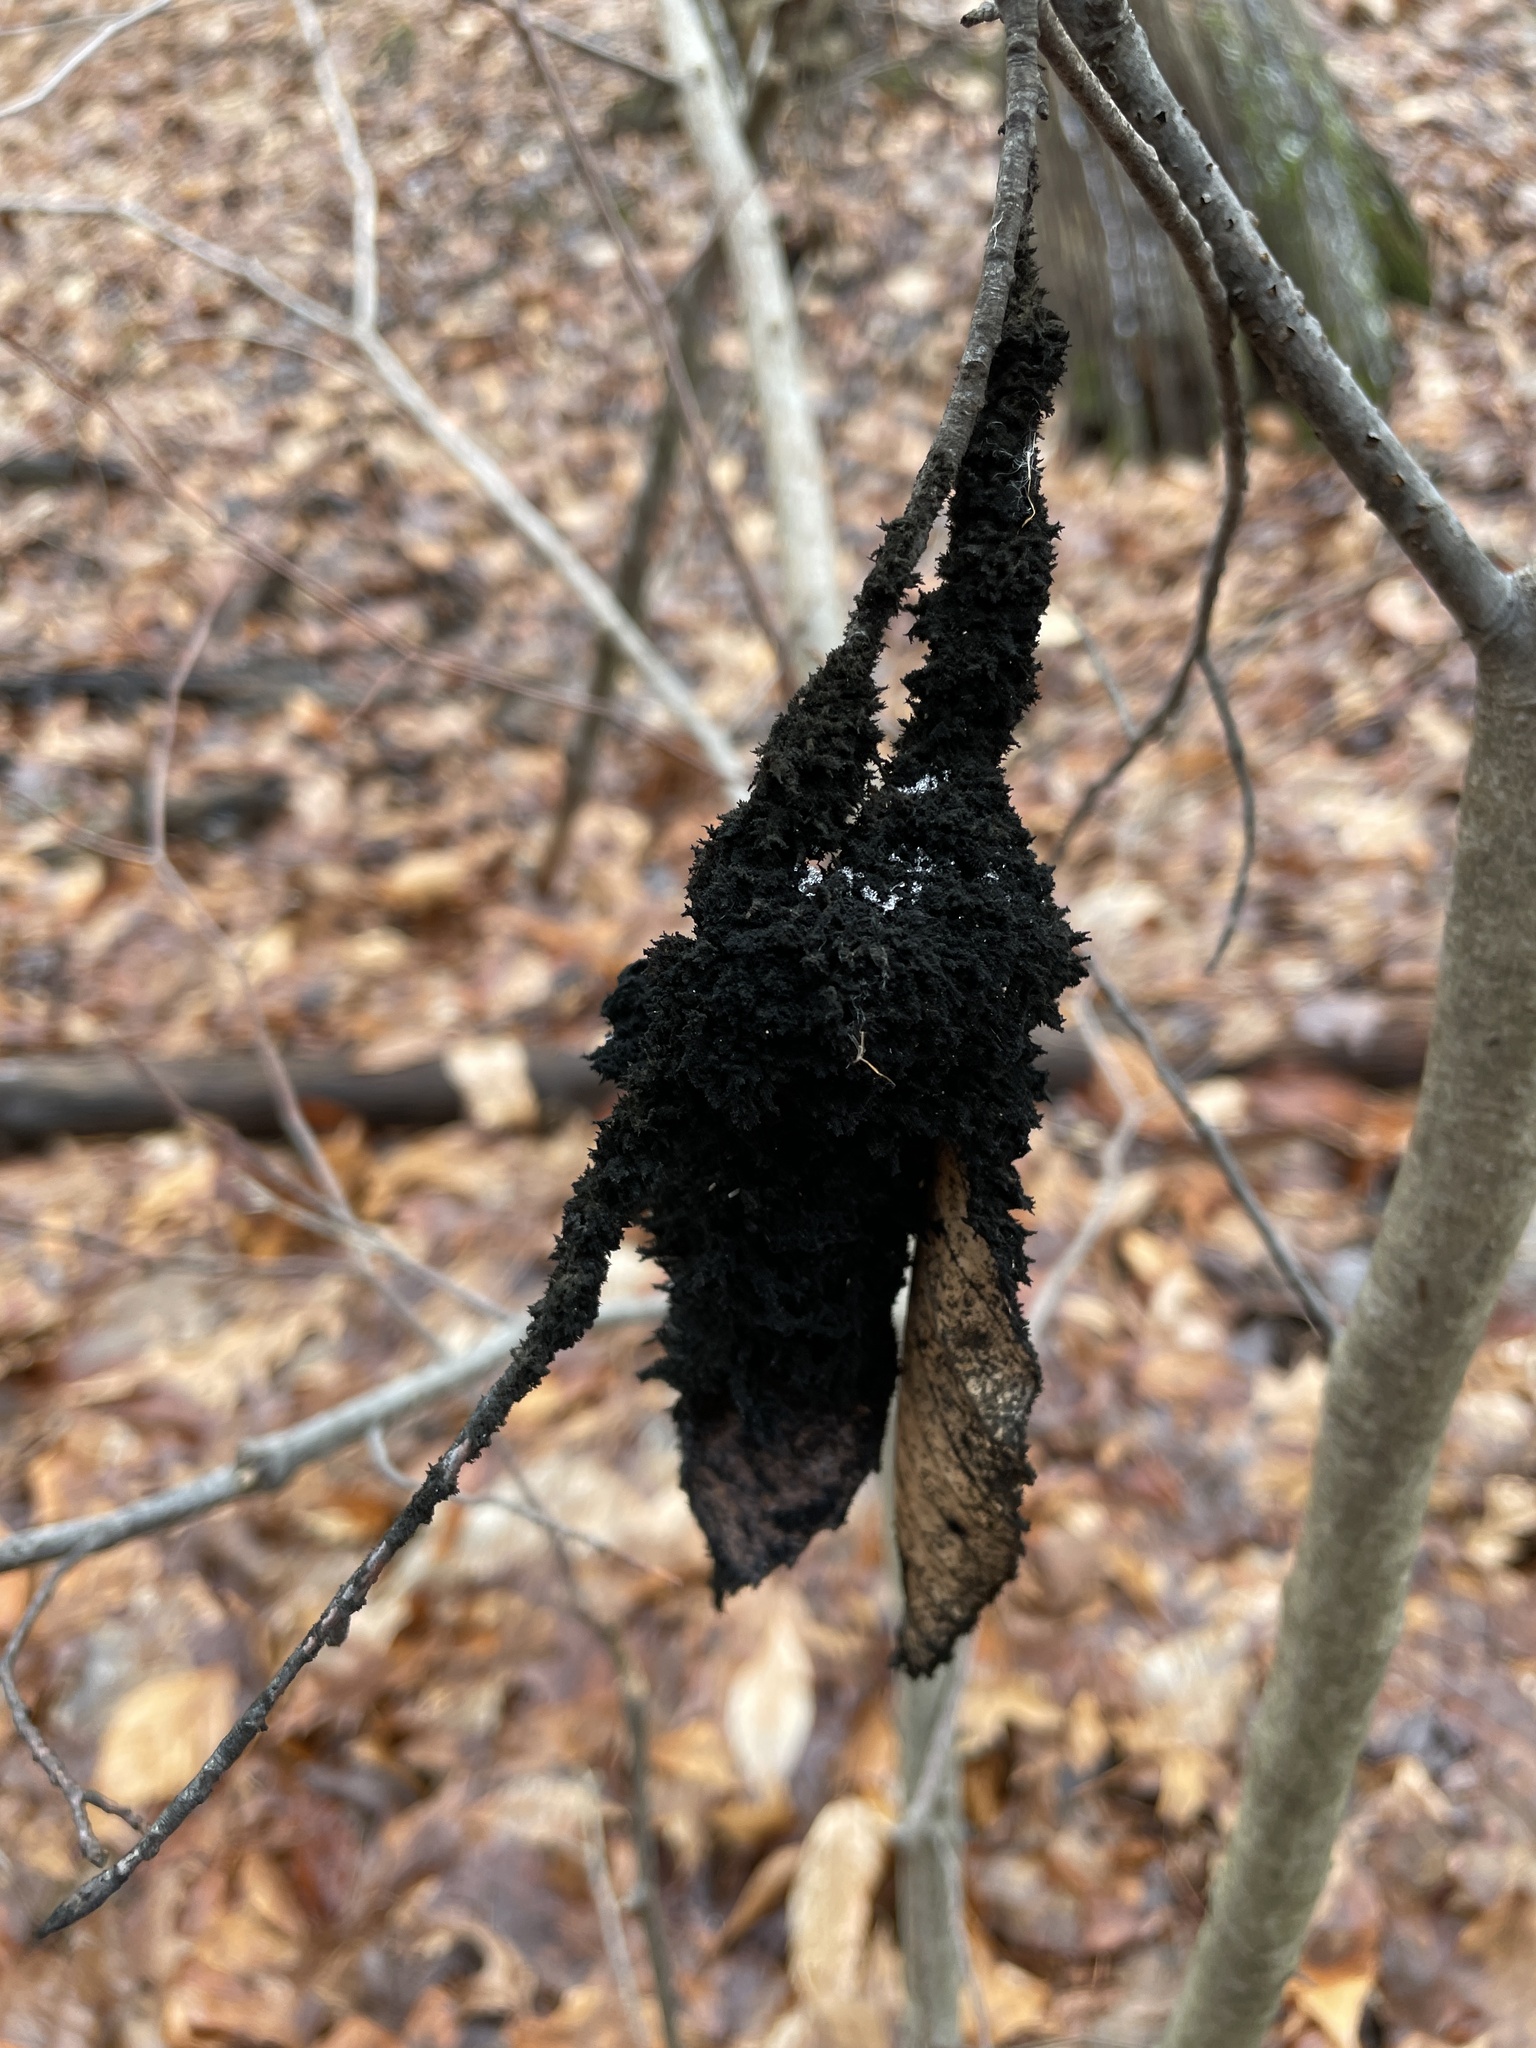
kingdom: Fungi
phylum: Ascomycota
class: Dothideomycetes
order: Capnodiales
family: Capnodiaceae
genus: Scorias
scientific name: Scorias spongiosa
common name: Black sooty mold
